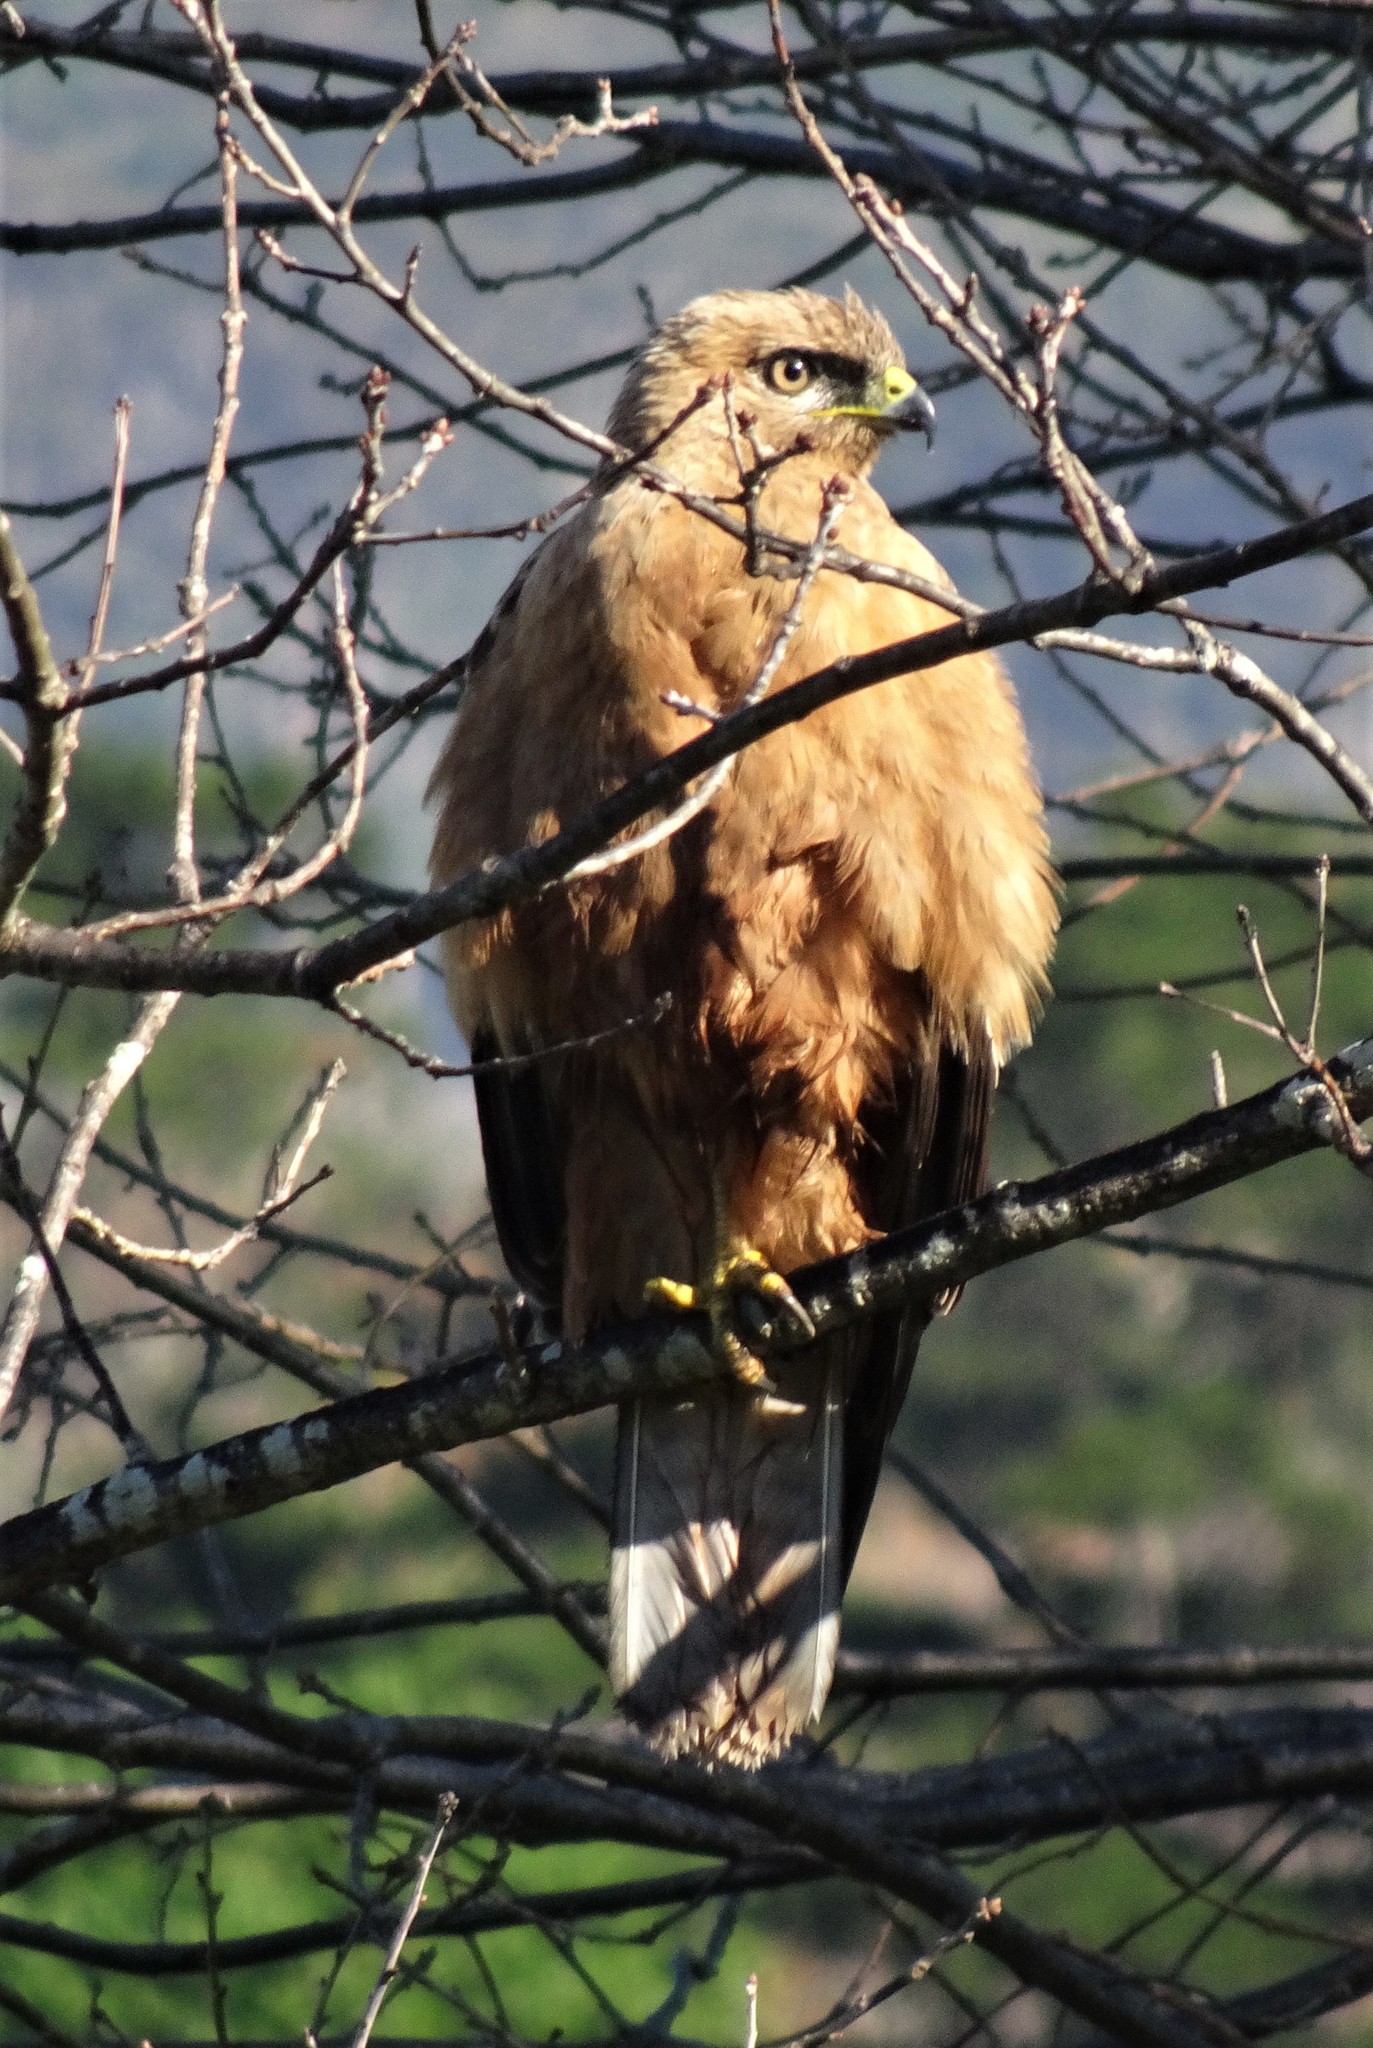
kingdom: Animalia
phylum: Chordata
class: Aves
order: Accipitriformes
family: Accipitridae
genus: Accipiter
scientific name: Accipiter melanoleucus
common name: Black sparrowhawk
